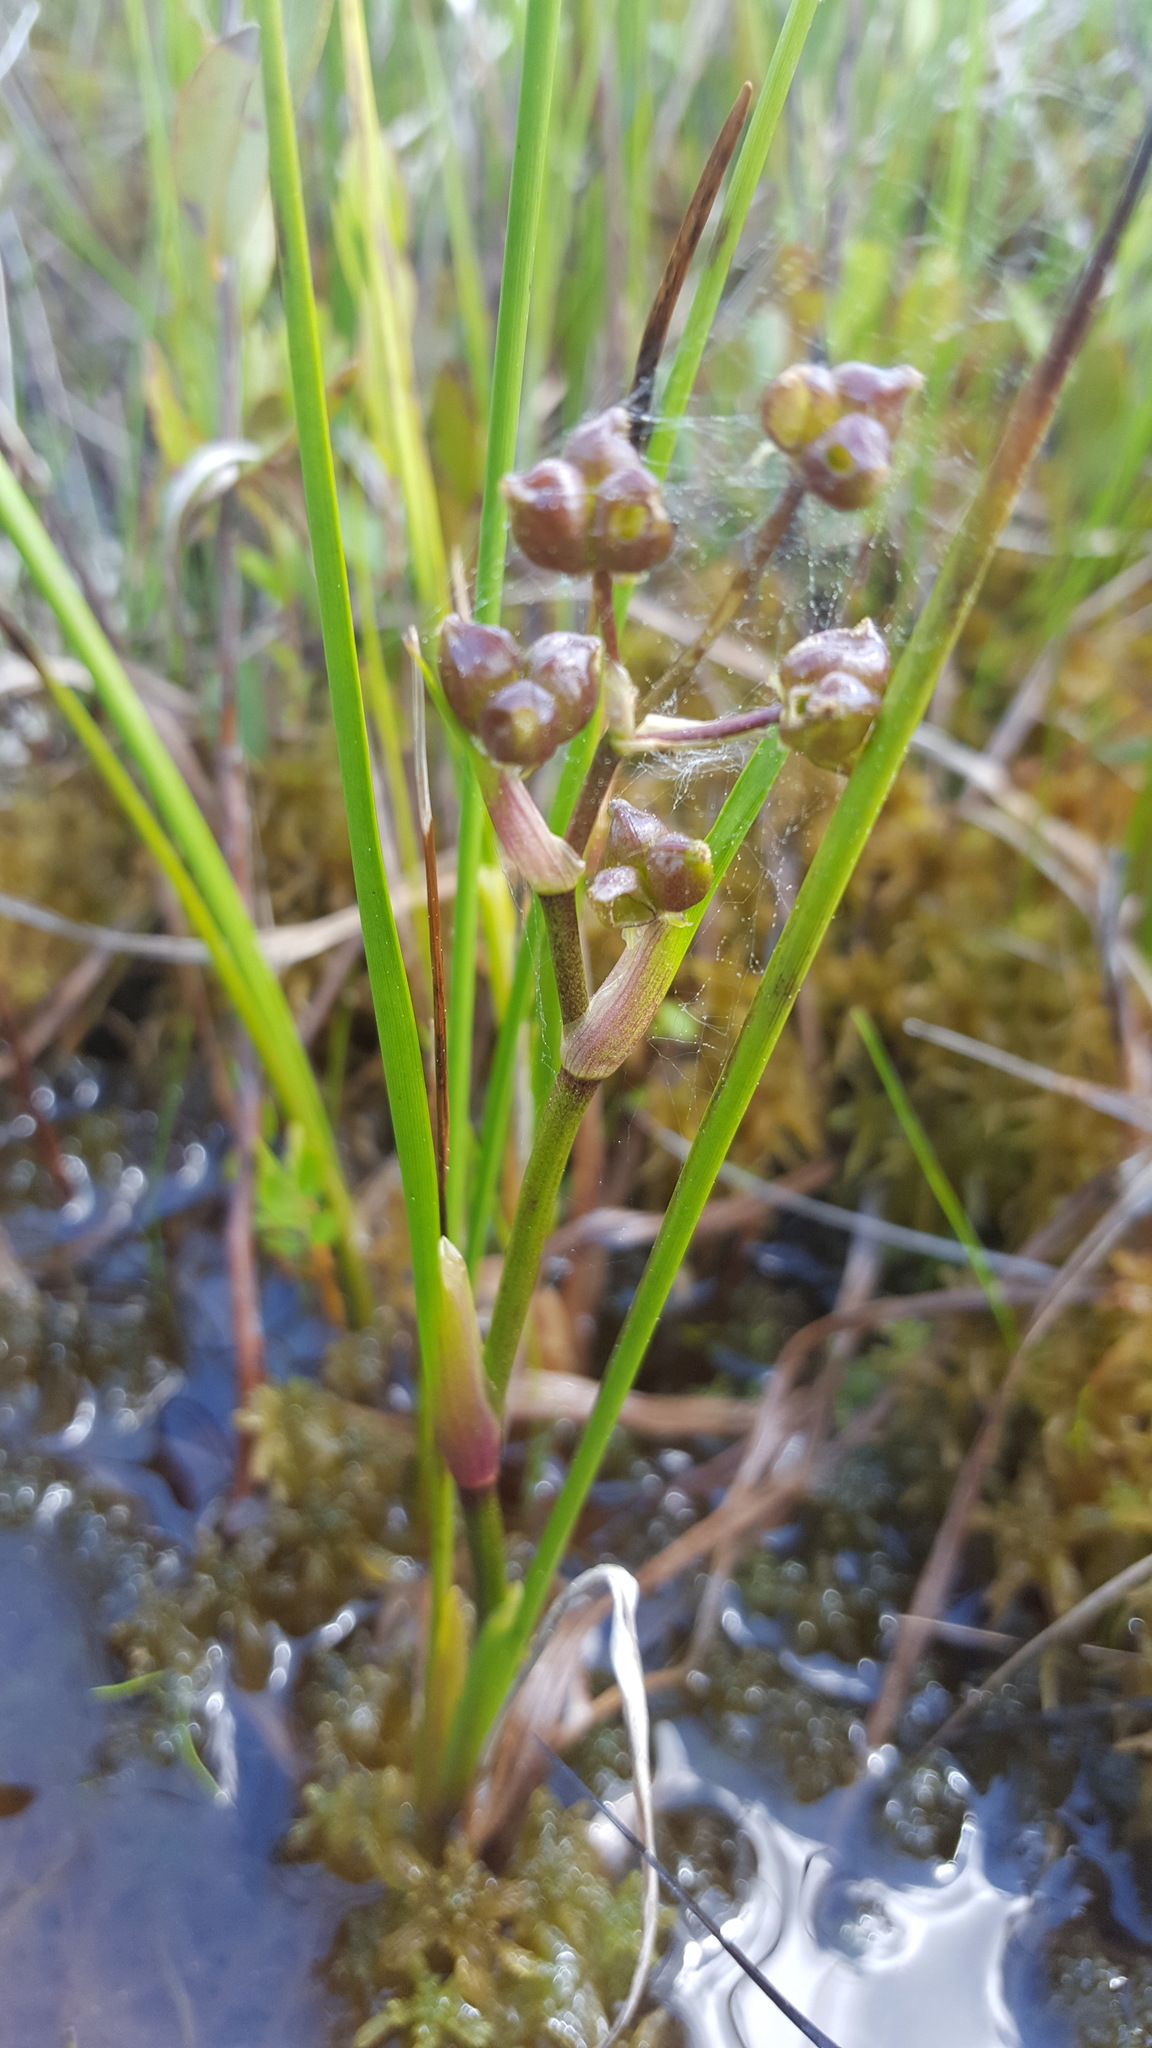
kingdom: Plantae
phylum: Tracheophyta
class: Liliopsida
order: Alismatales
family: Scheuchzeriaceae
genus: Scheuchzeria
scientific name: Scheuchzeria palustris
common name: Rannoch-rush
